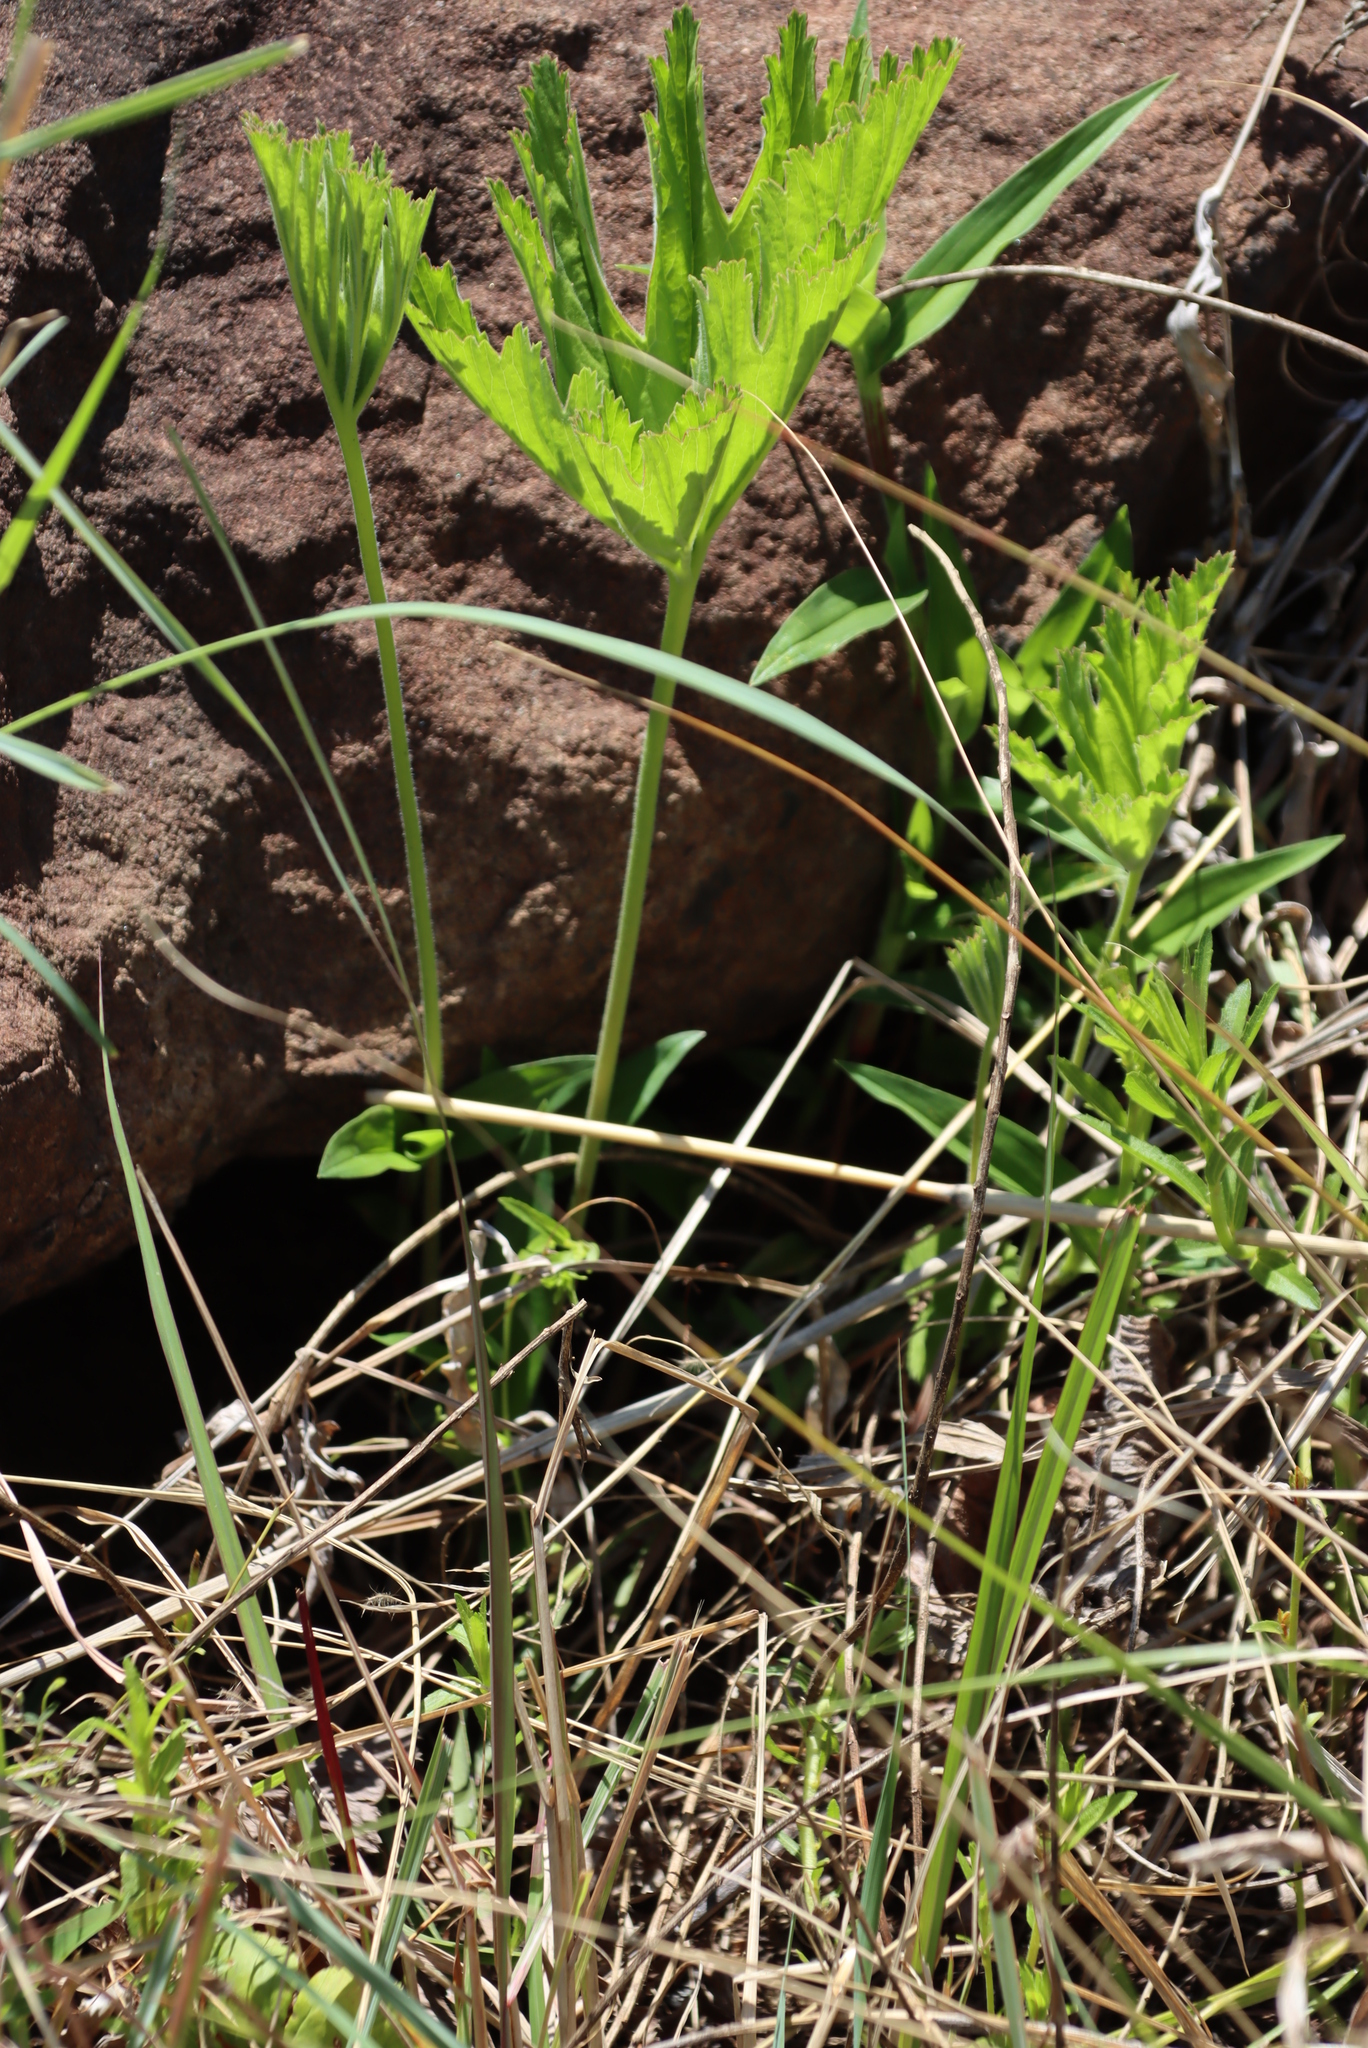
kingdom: Plantae
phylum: Tracheophyta
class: Magnoliopsida
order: Geraniales
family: Geraniaceae
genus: Pelargonium
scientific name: Pelargonium luridum
